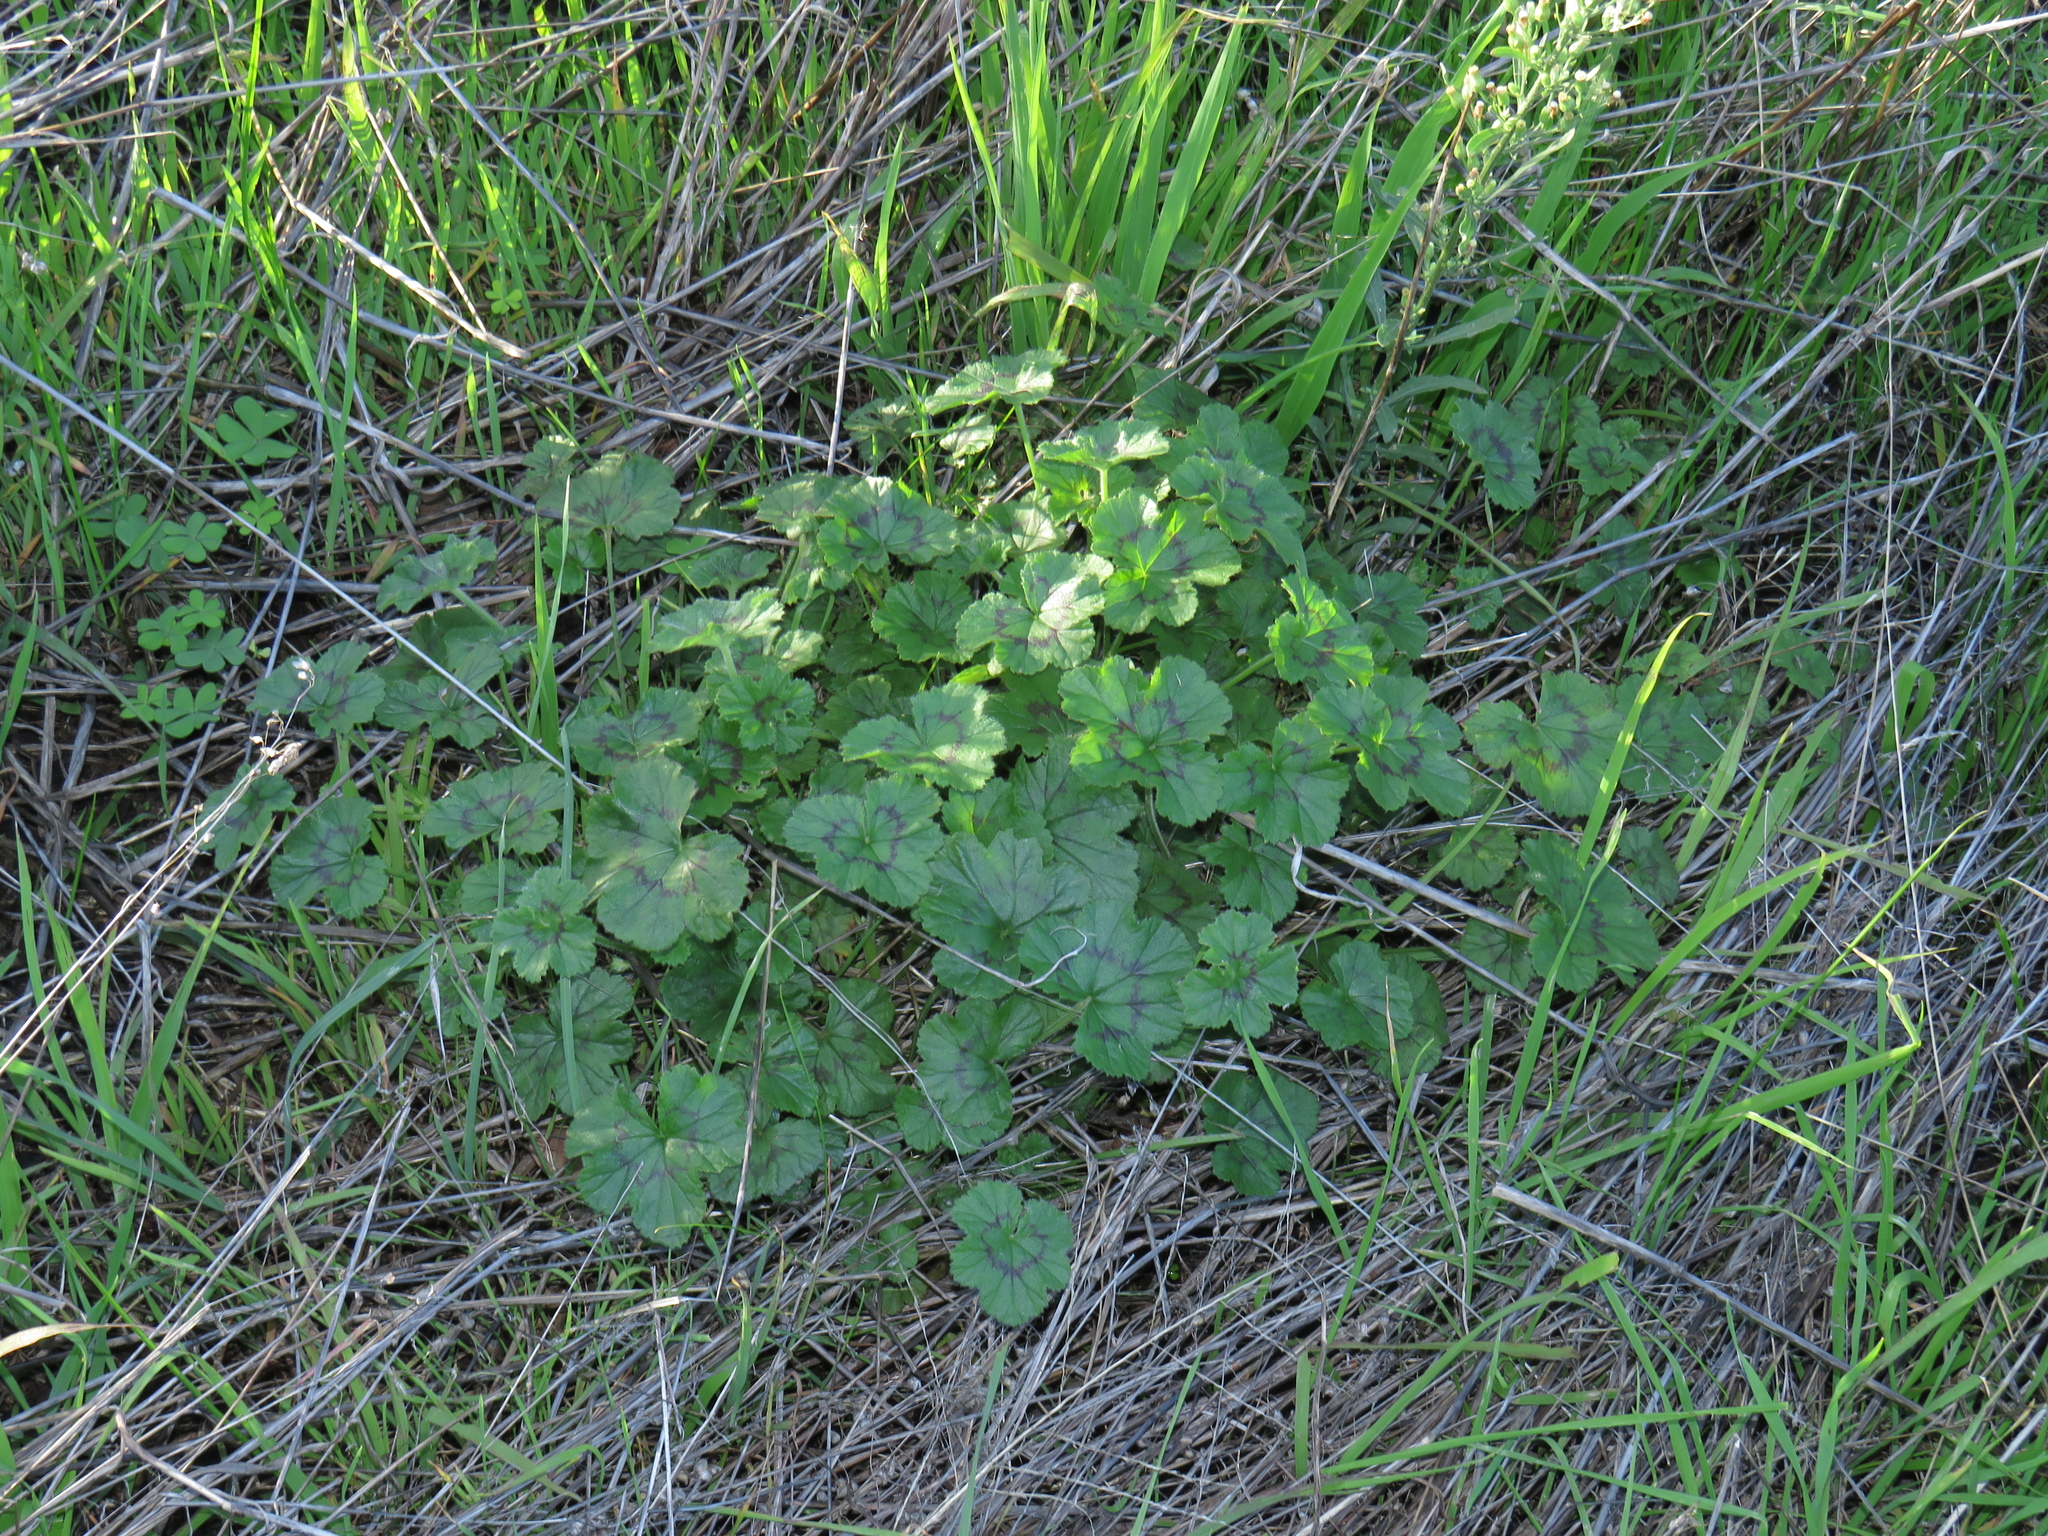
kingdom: Plantae
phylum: Tracheophyta
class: Magnoliopsida
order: Geraniales
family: Geraniaceae
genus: Pelargonium
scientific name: Pelargonium elongatum
